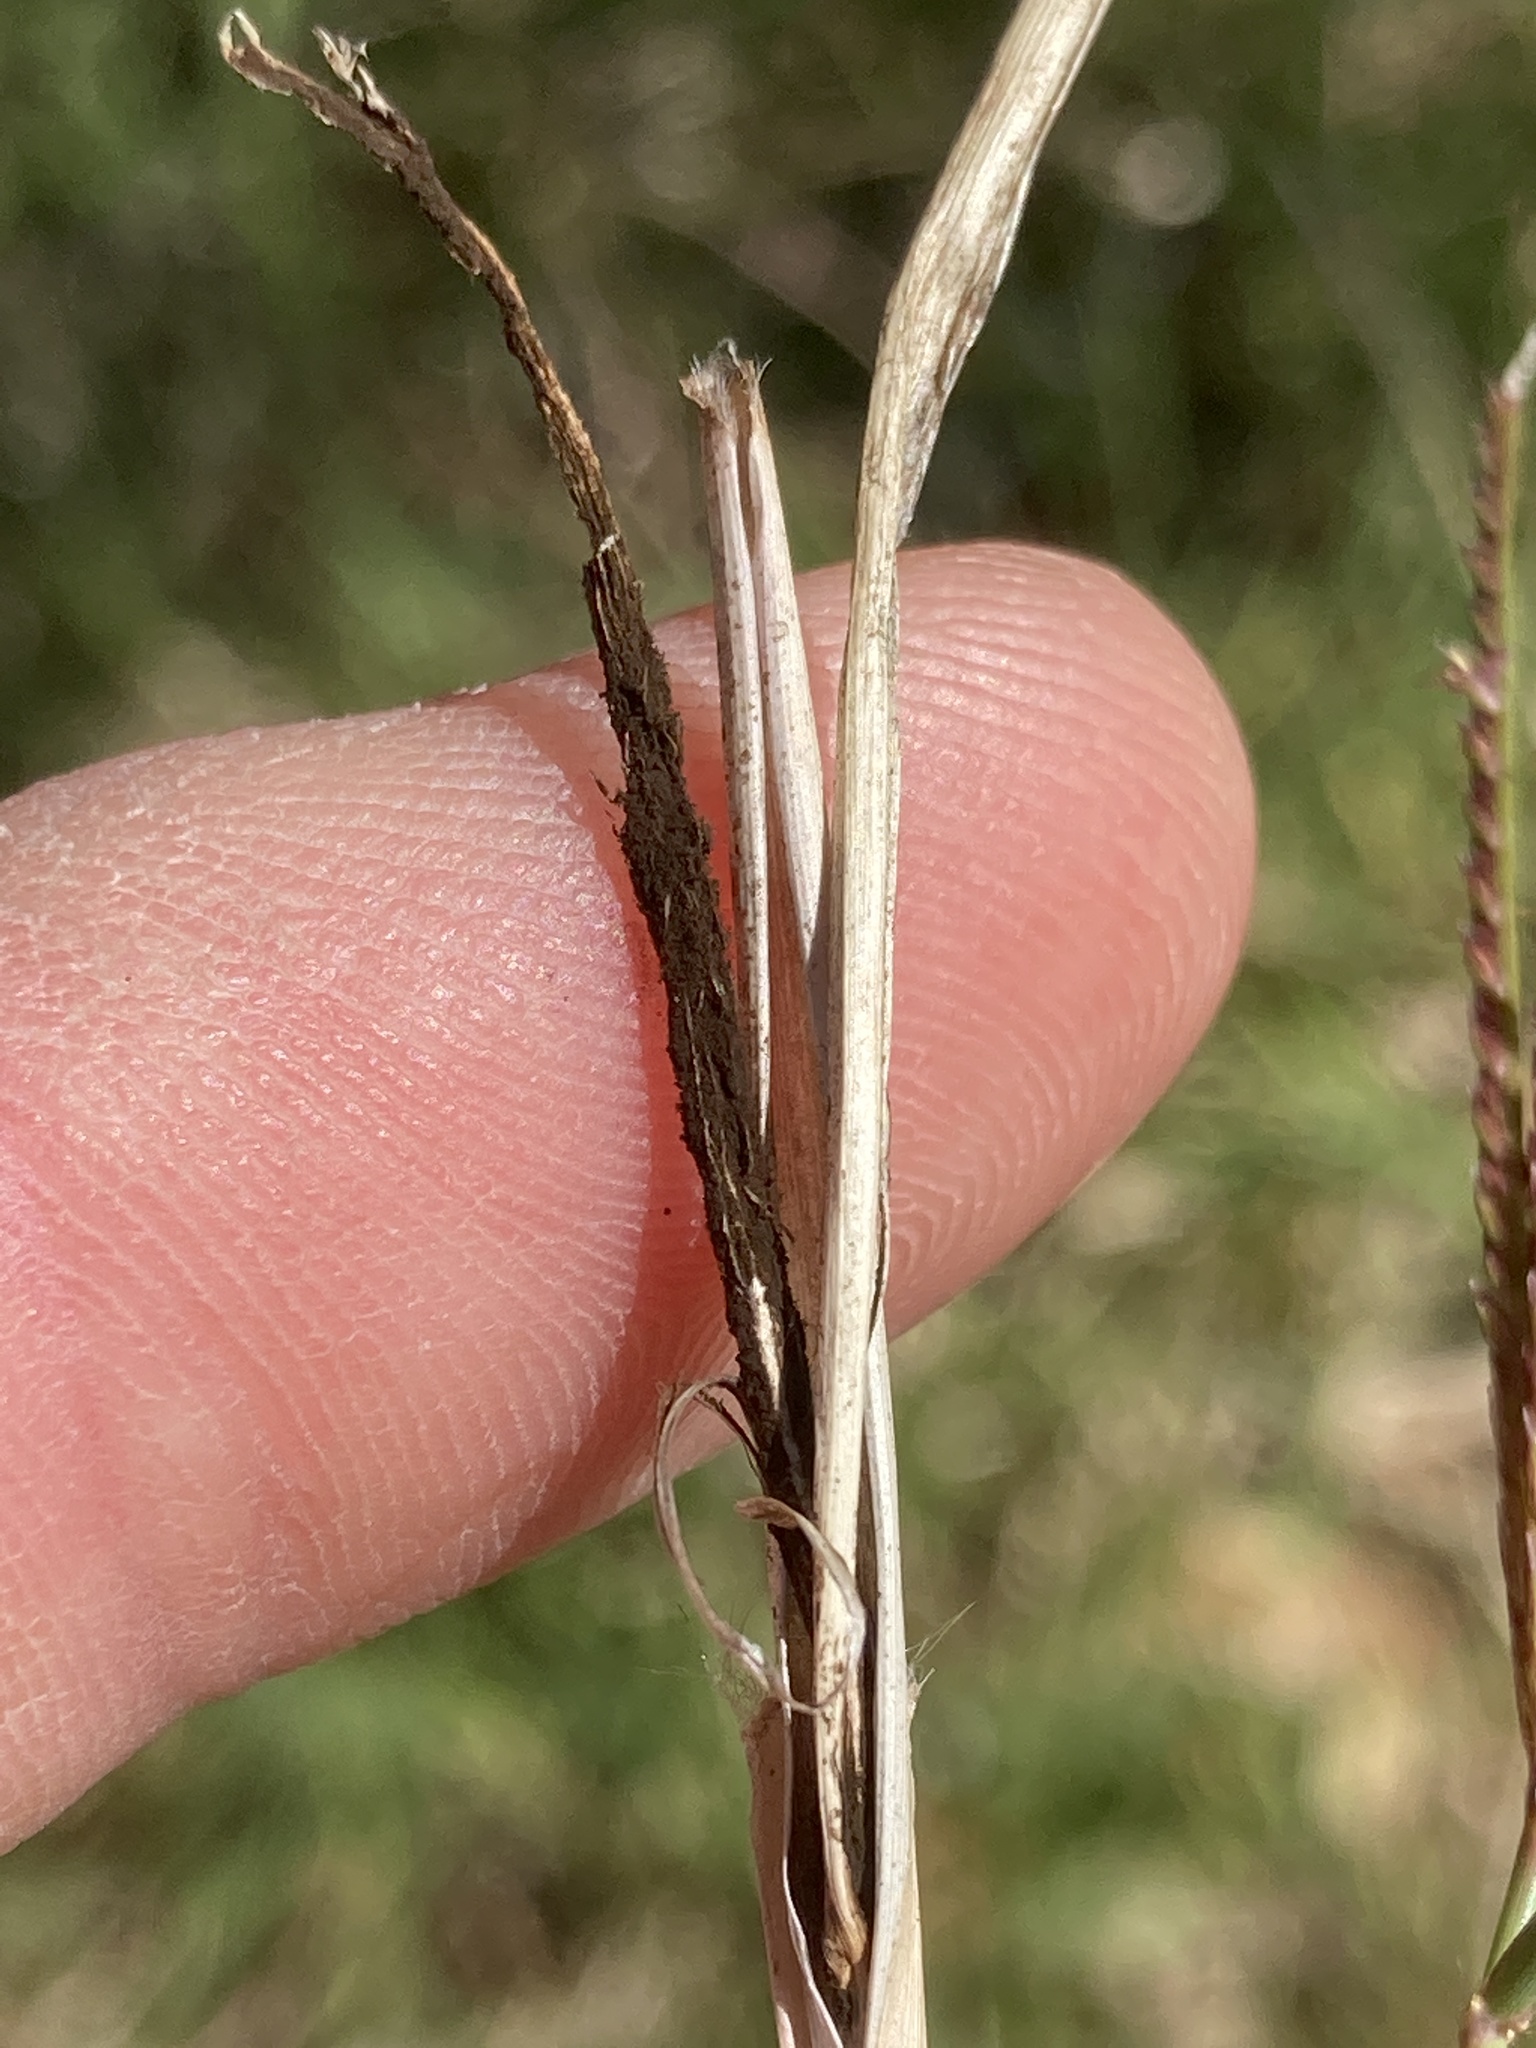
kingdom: Fungi
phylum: Basidiomycota
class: Ustilaginomycetes
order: Ustilaginales
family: Ustilaginaceae
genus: Ustilago
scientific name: Ustilago cynodontis
